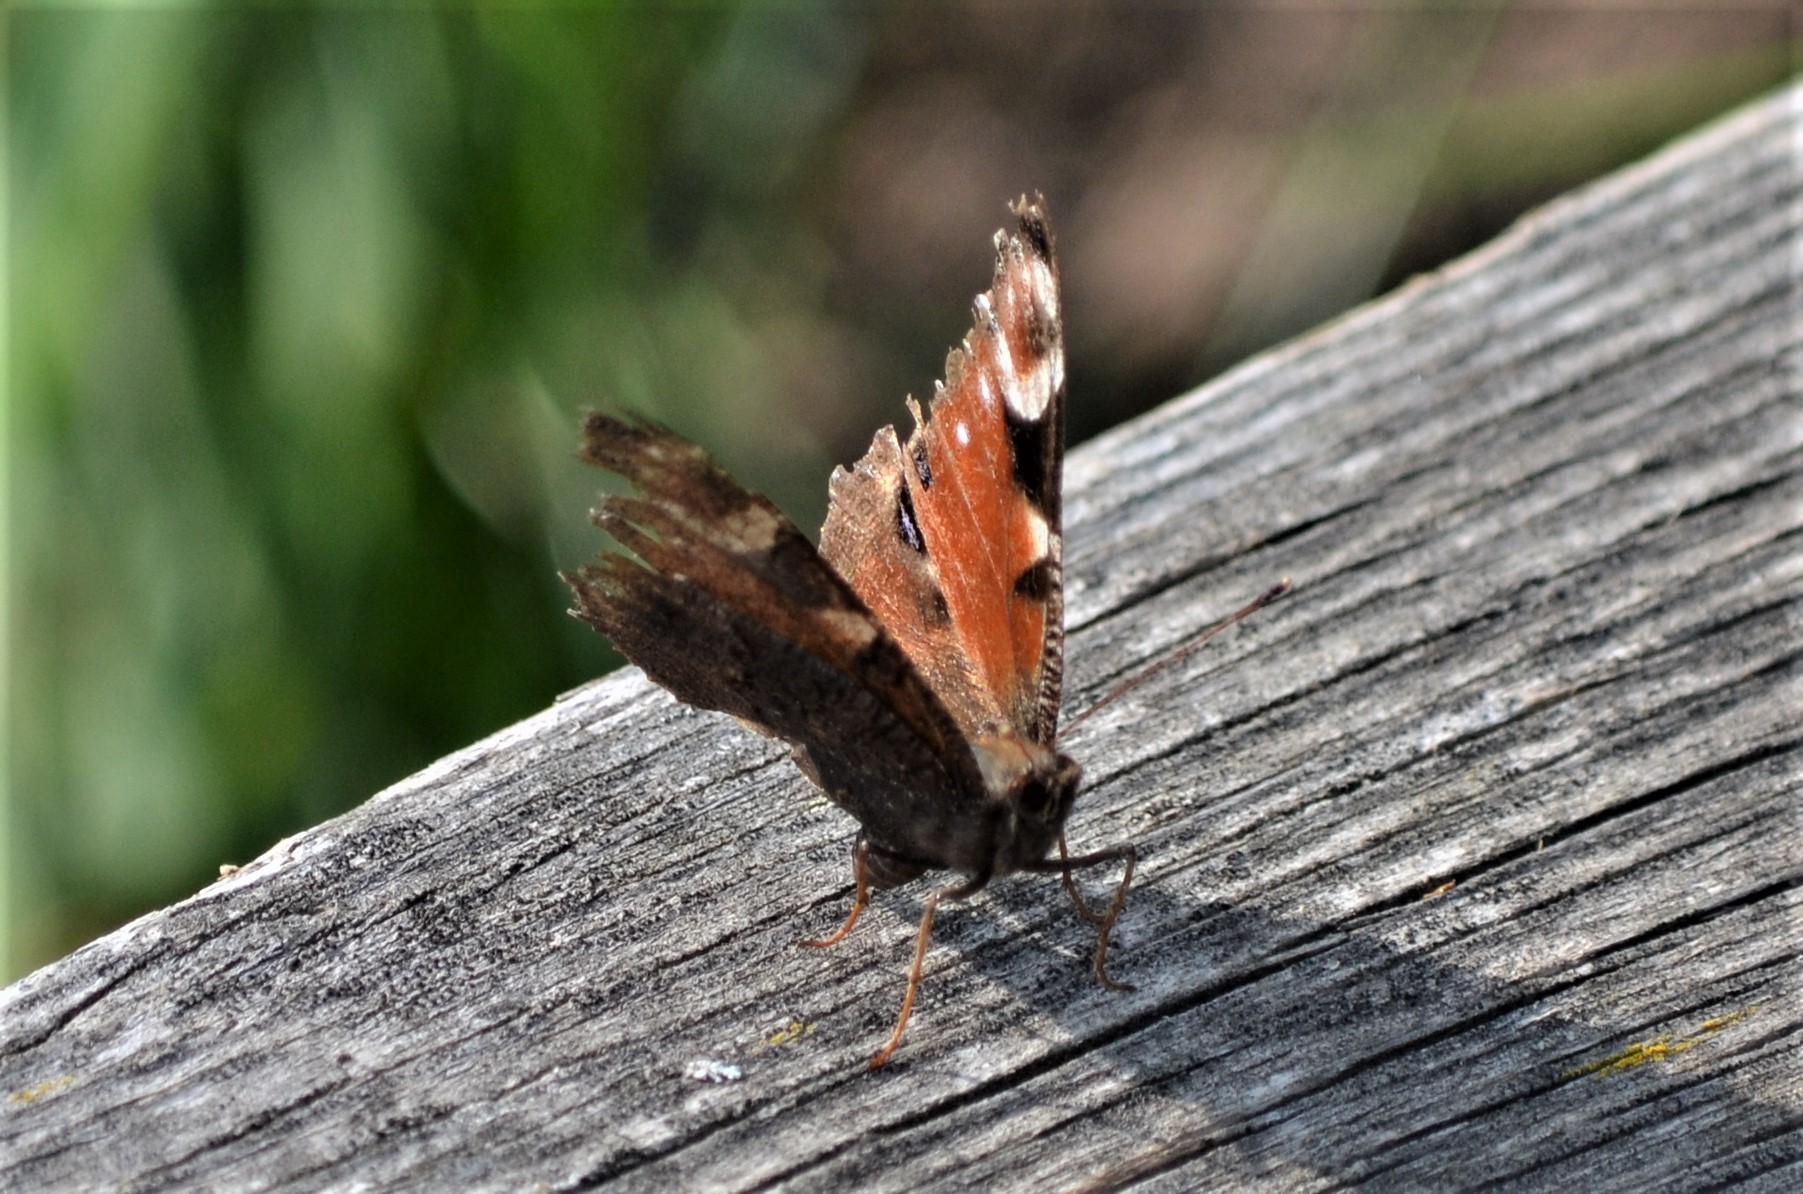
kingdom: Animalia
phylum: Arthropoda
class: Insecta
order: Lepidoptera
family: Nymphalidae
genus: Aglais
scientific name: Aglais io
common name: Peacock
